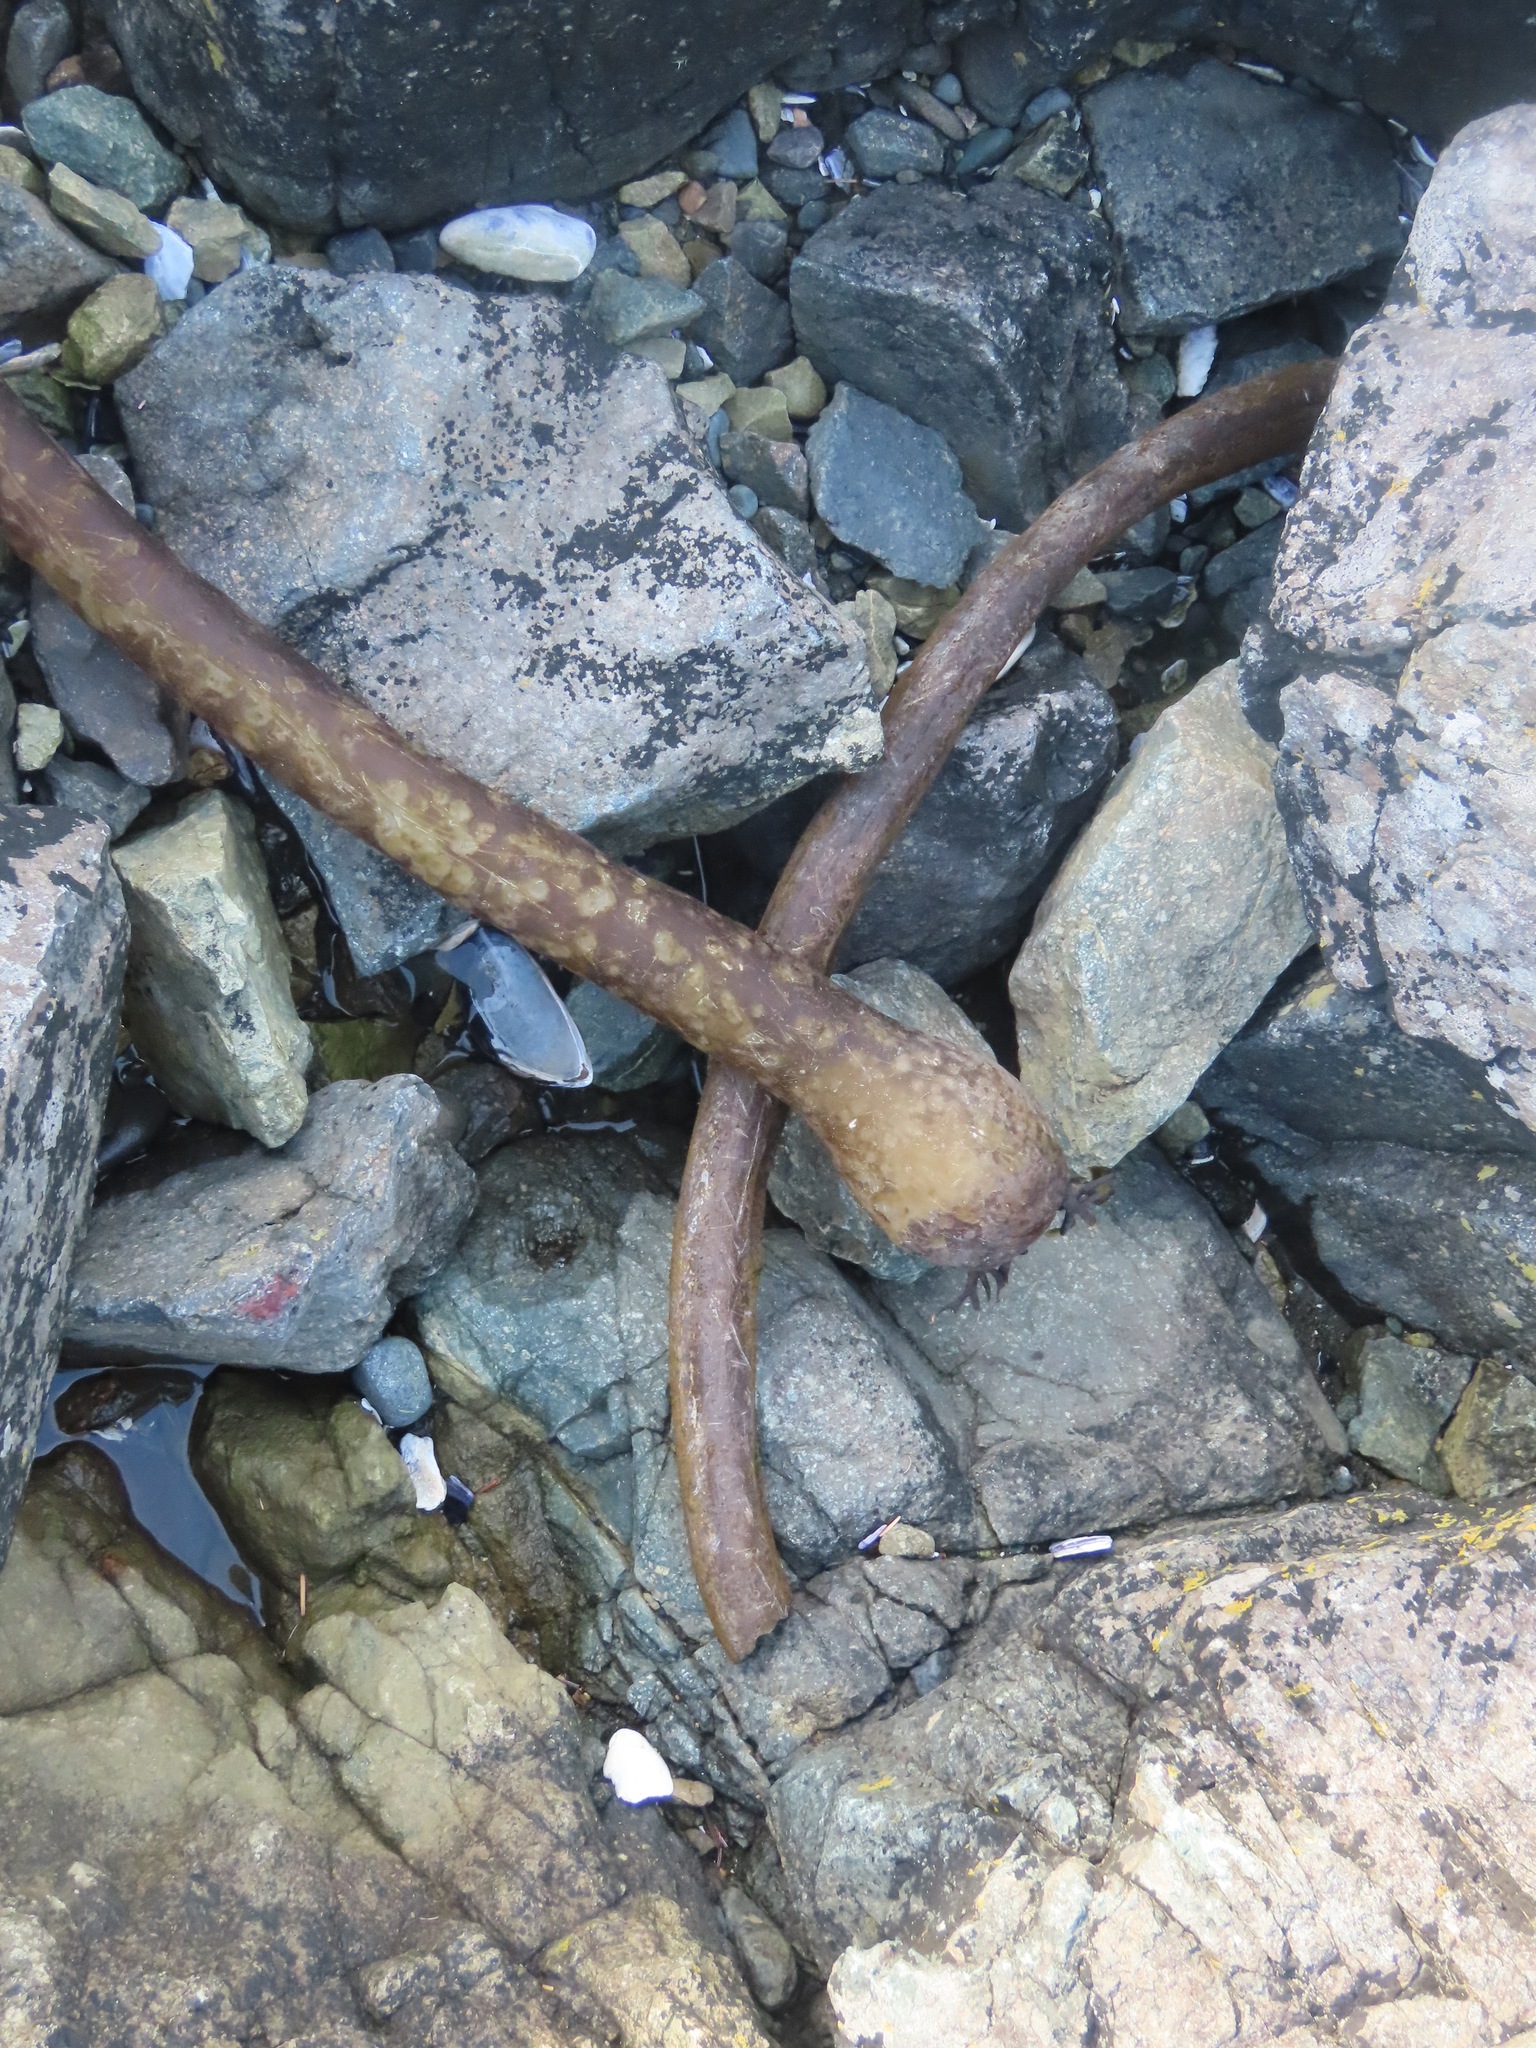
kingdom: Chromista
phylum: Ochrophyta
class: Phaeophyceae
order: Laminariales
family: Laminariaceae
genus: Nereocystis
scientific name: Nereocystis luetkeana
